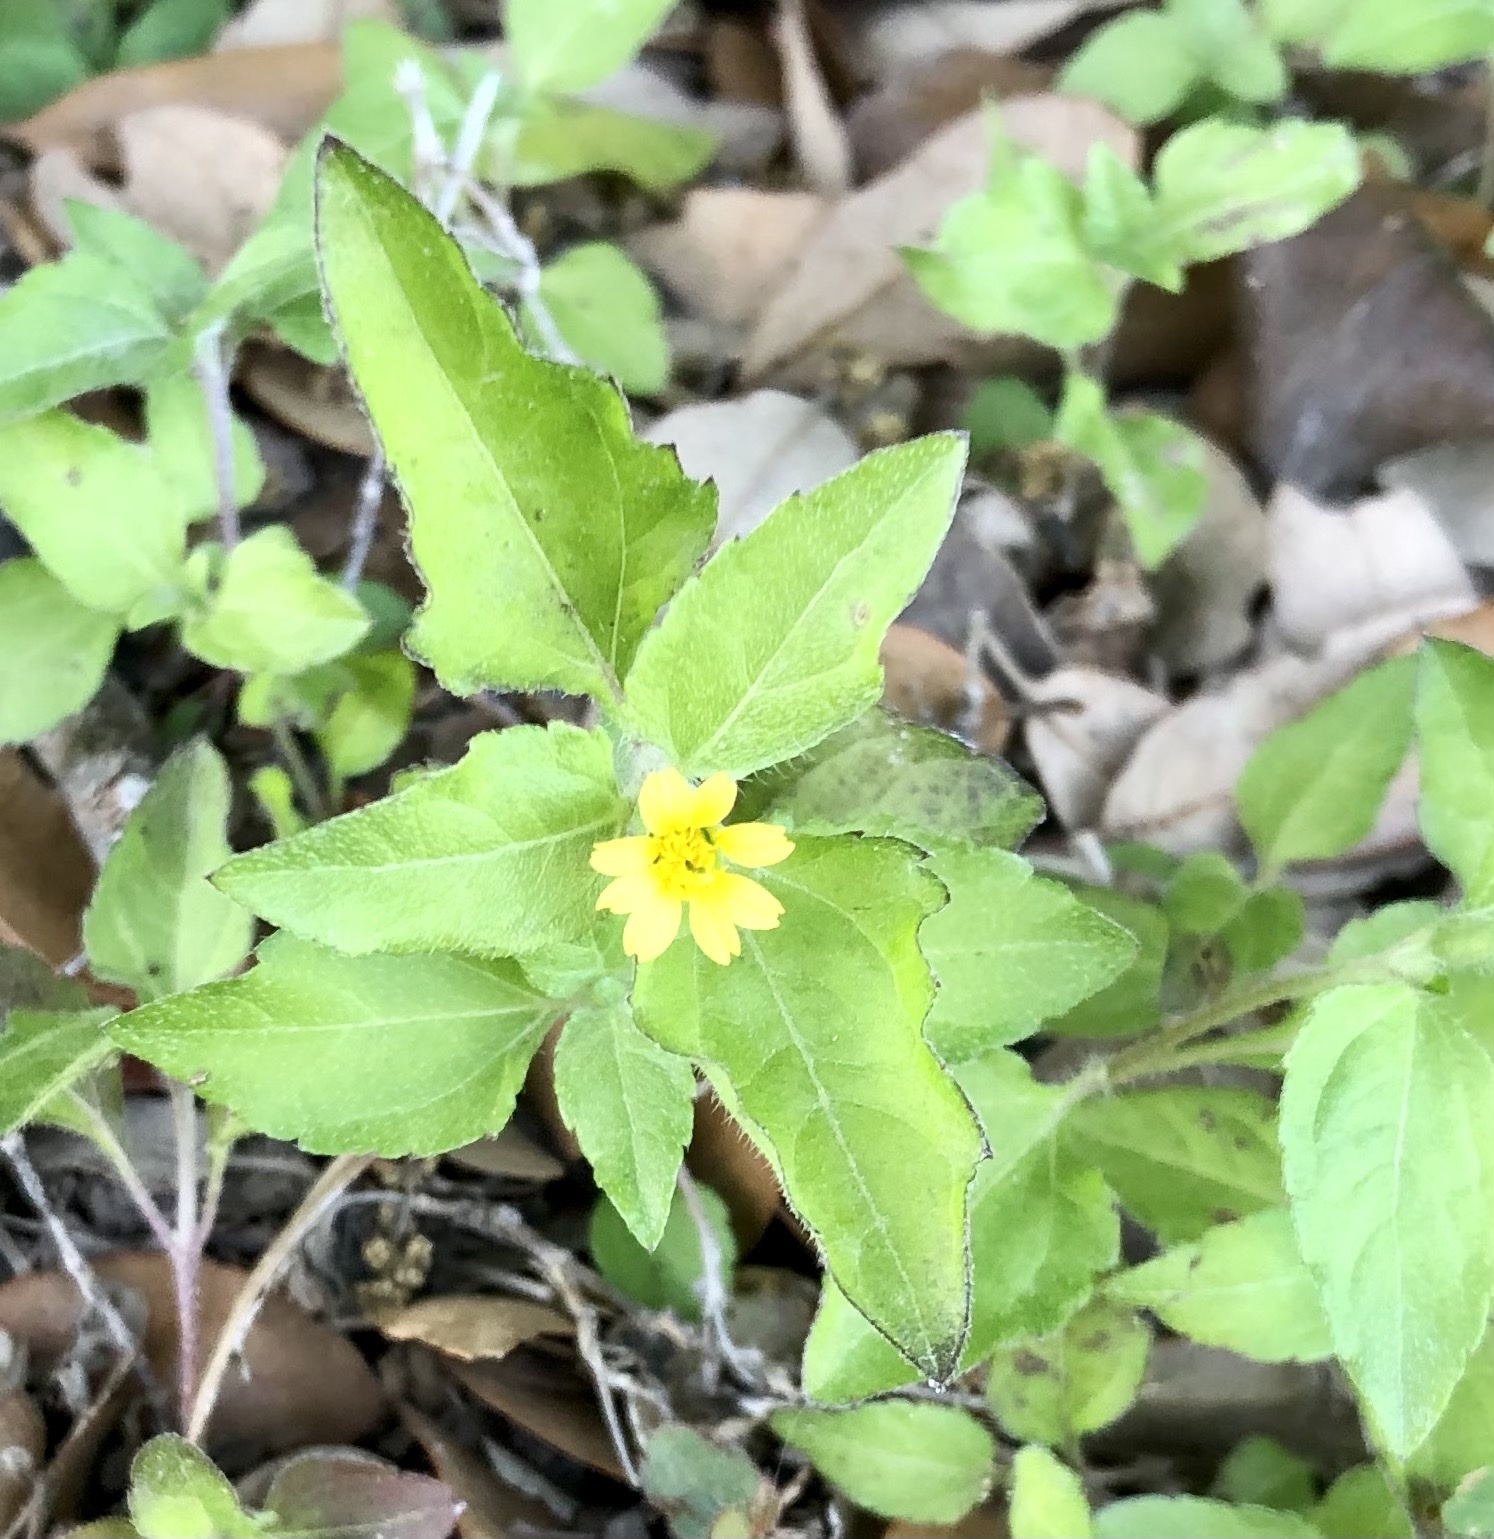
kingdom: Plantae
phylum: Tracheophyta
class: Magnoliopsida
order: Asterales
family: Asteraceae
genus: Calyptocarpus
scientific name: Calyptocarpus vialis
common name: Straggler daisy
